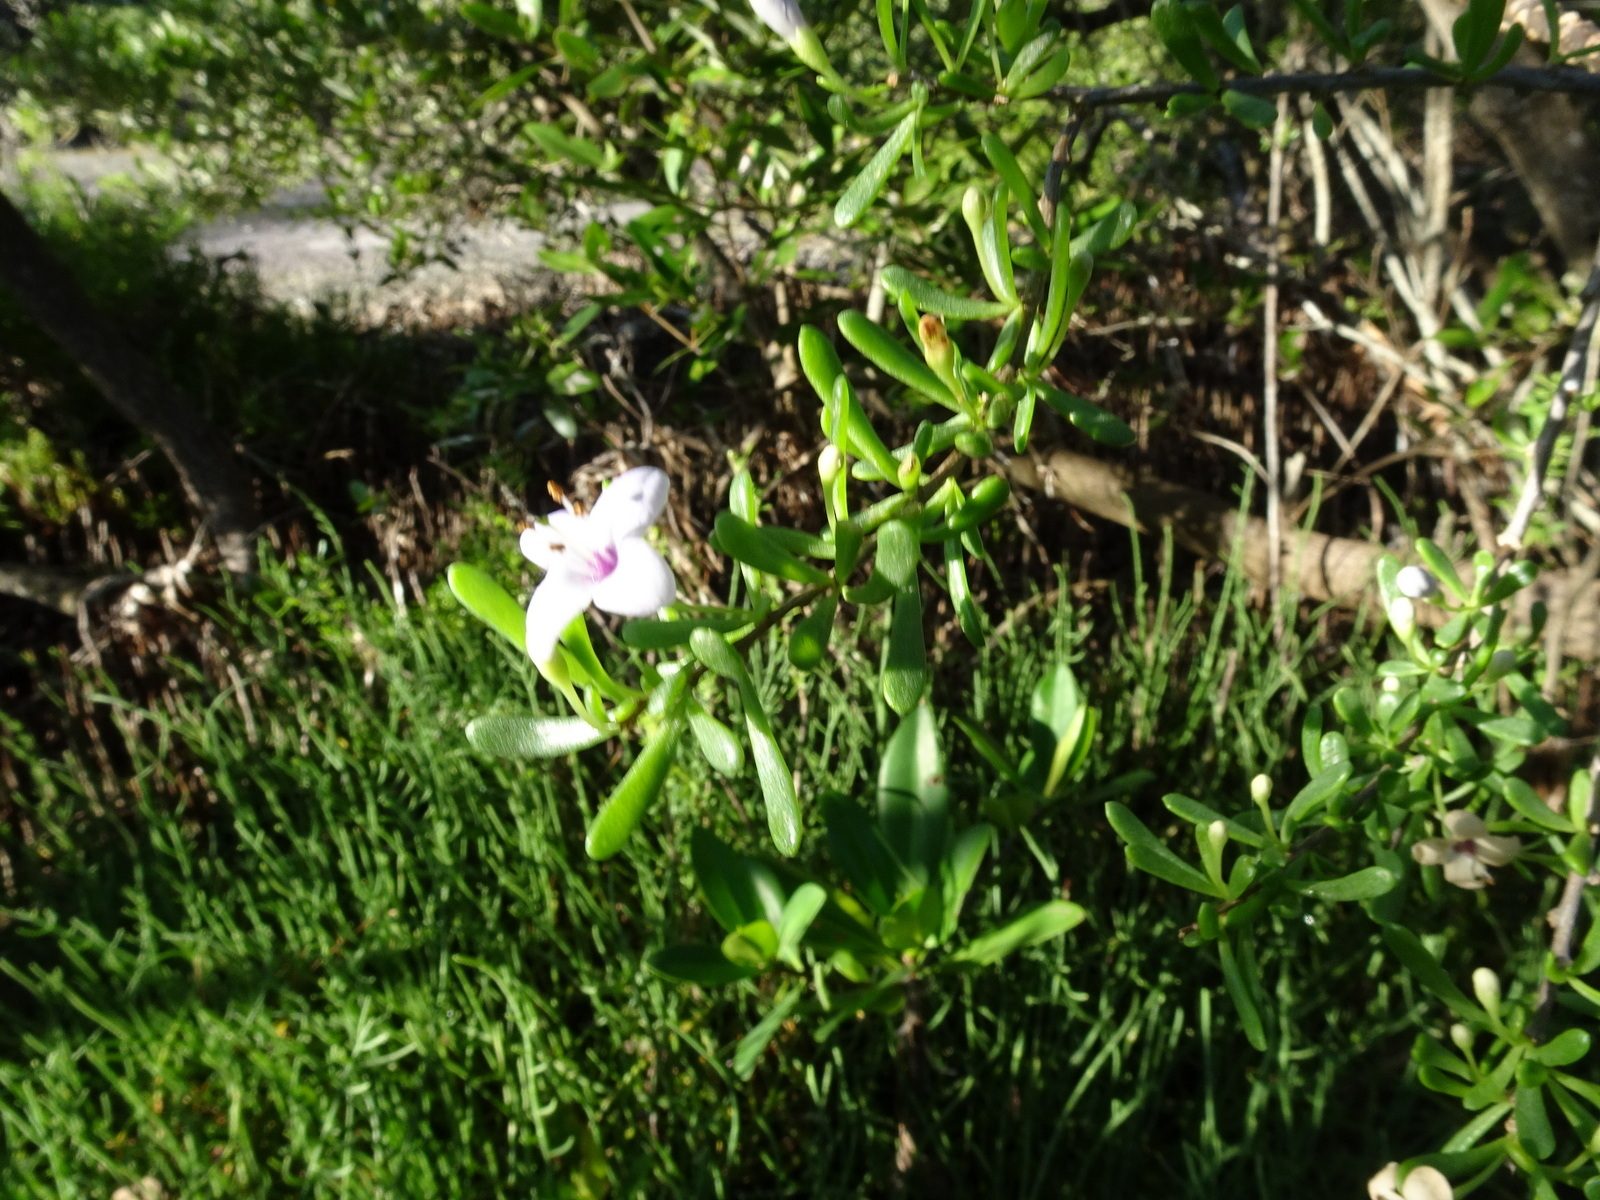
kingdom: Plantae
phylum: Tracheophyta
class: Magnoliopsida
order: Solanales
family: Solanaceae
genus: Lycium
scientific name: Lycium carolinianum
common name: Christmasberry
